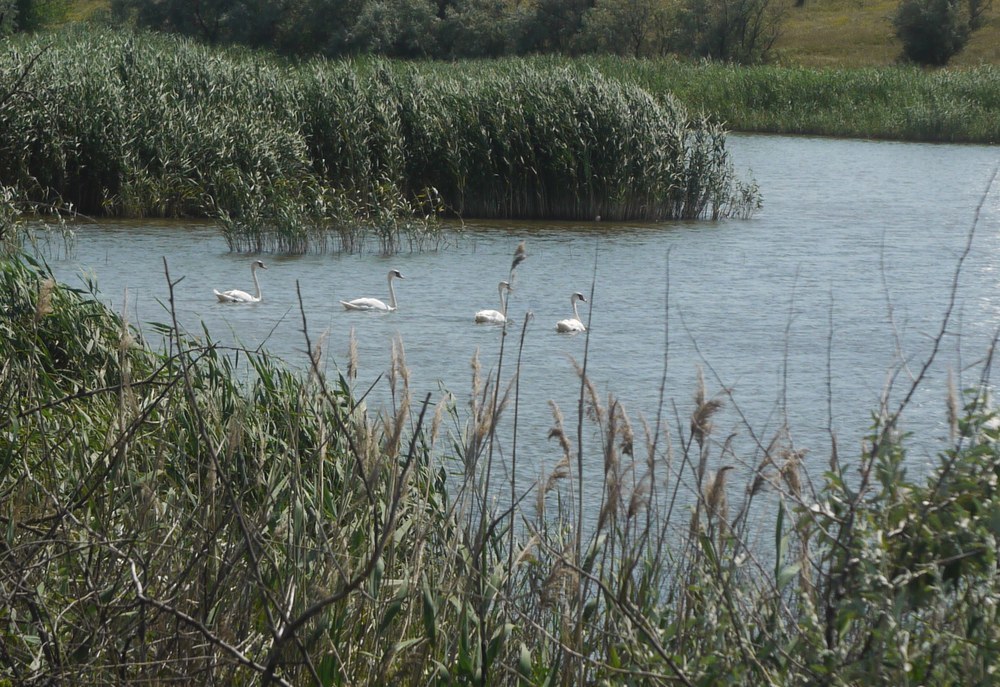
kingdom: Animalia
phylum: Chordata
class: Aves
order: Anseriformes
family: Anatidae
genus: Cygnus
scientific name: Cygnus olor
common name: Mute swan
